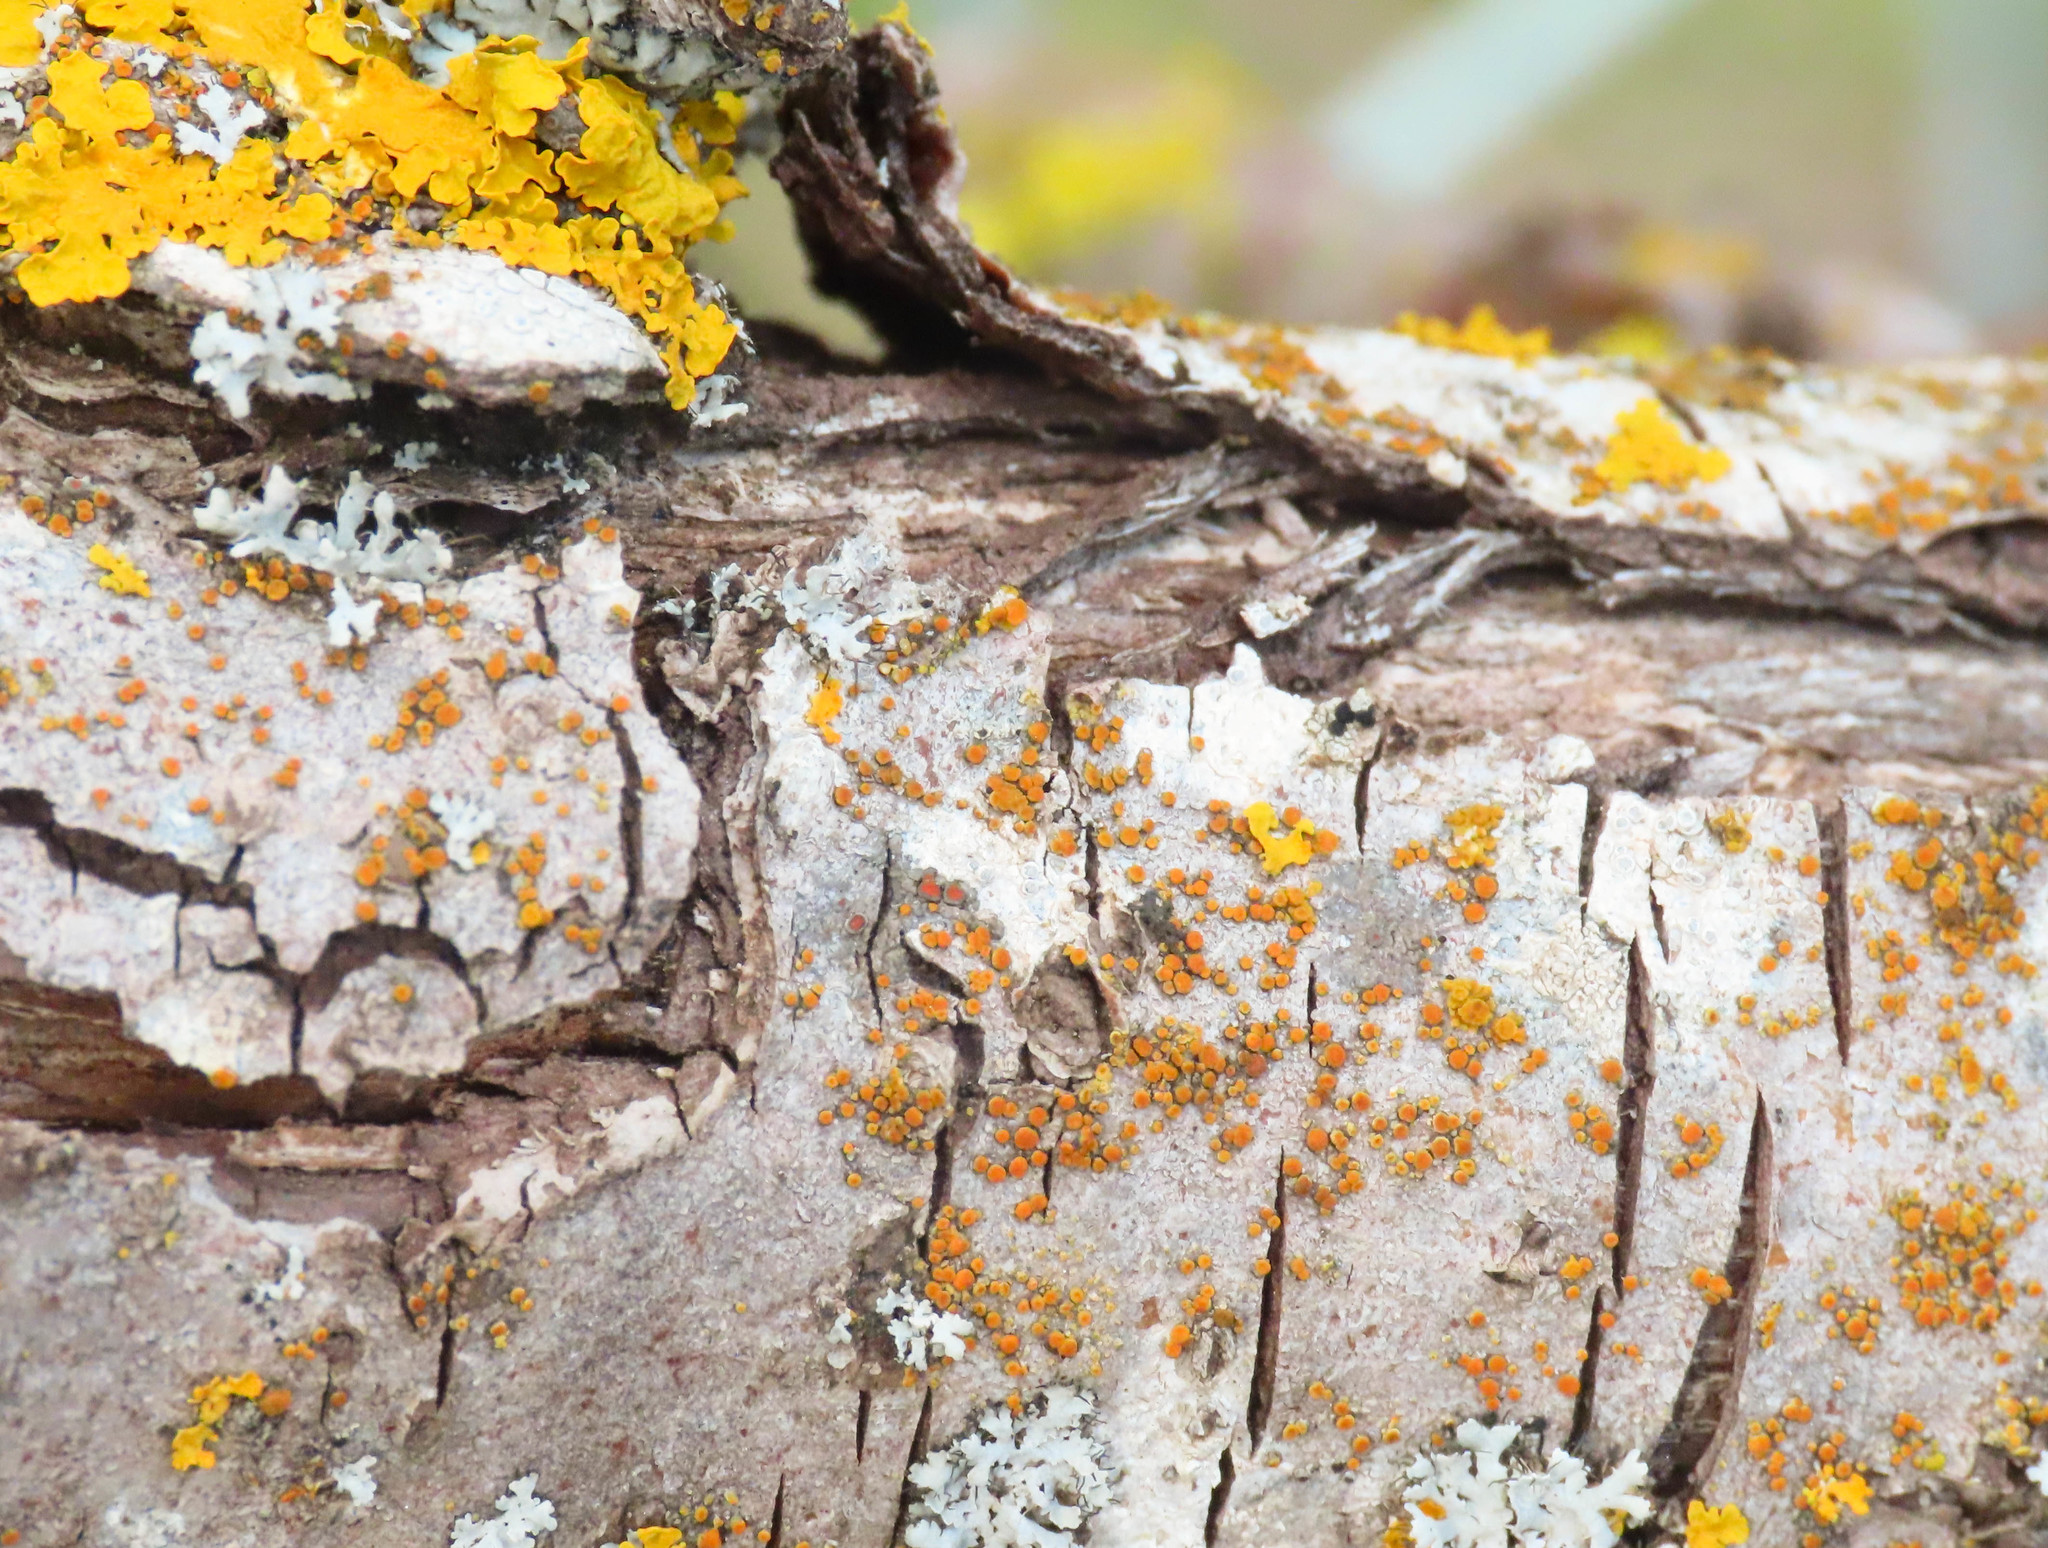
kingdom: Fungi
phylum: Ascomycota
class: Lecanoromycetes
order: Teloschistales
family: Teloschistaceae
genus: Athallia
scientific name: Athallia pyracea
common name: Flaming firedot lichen
